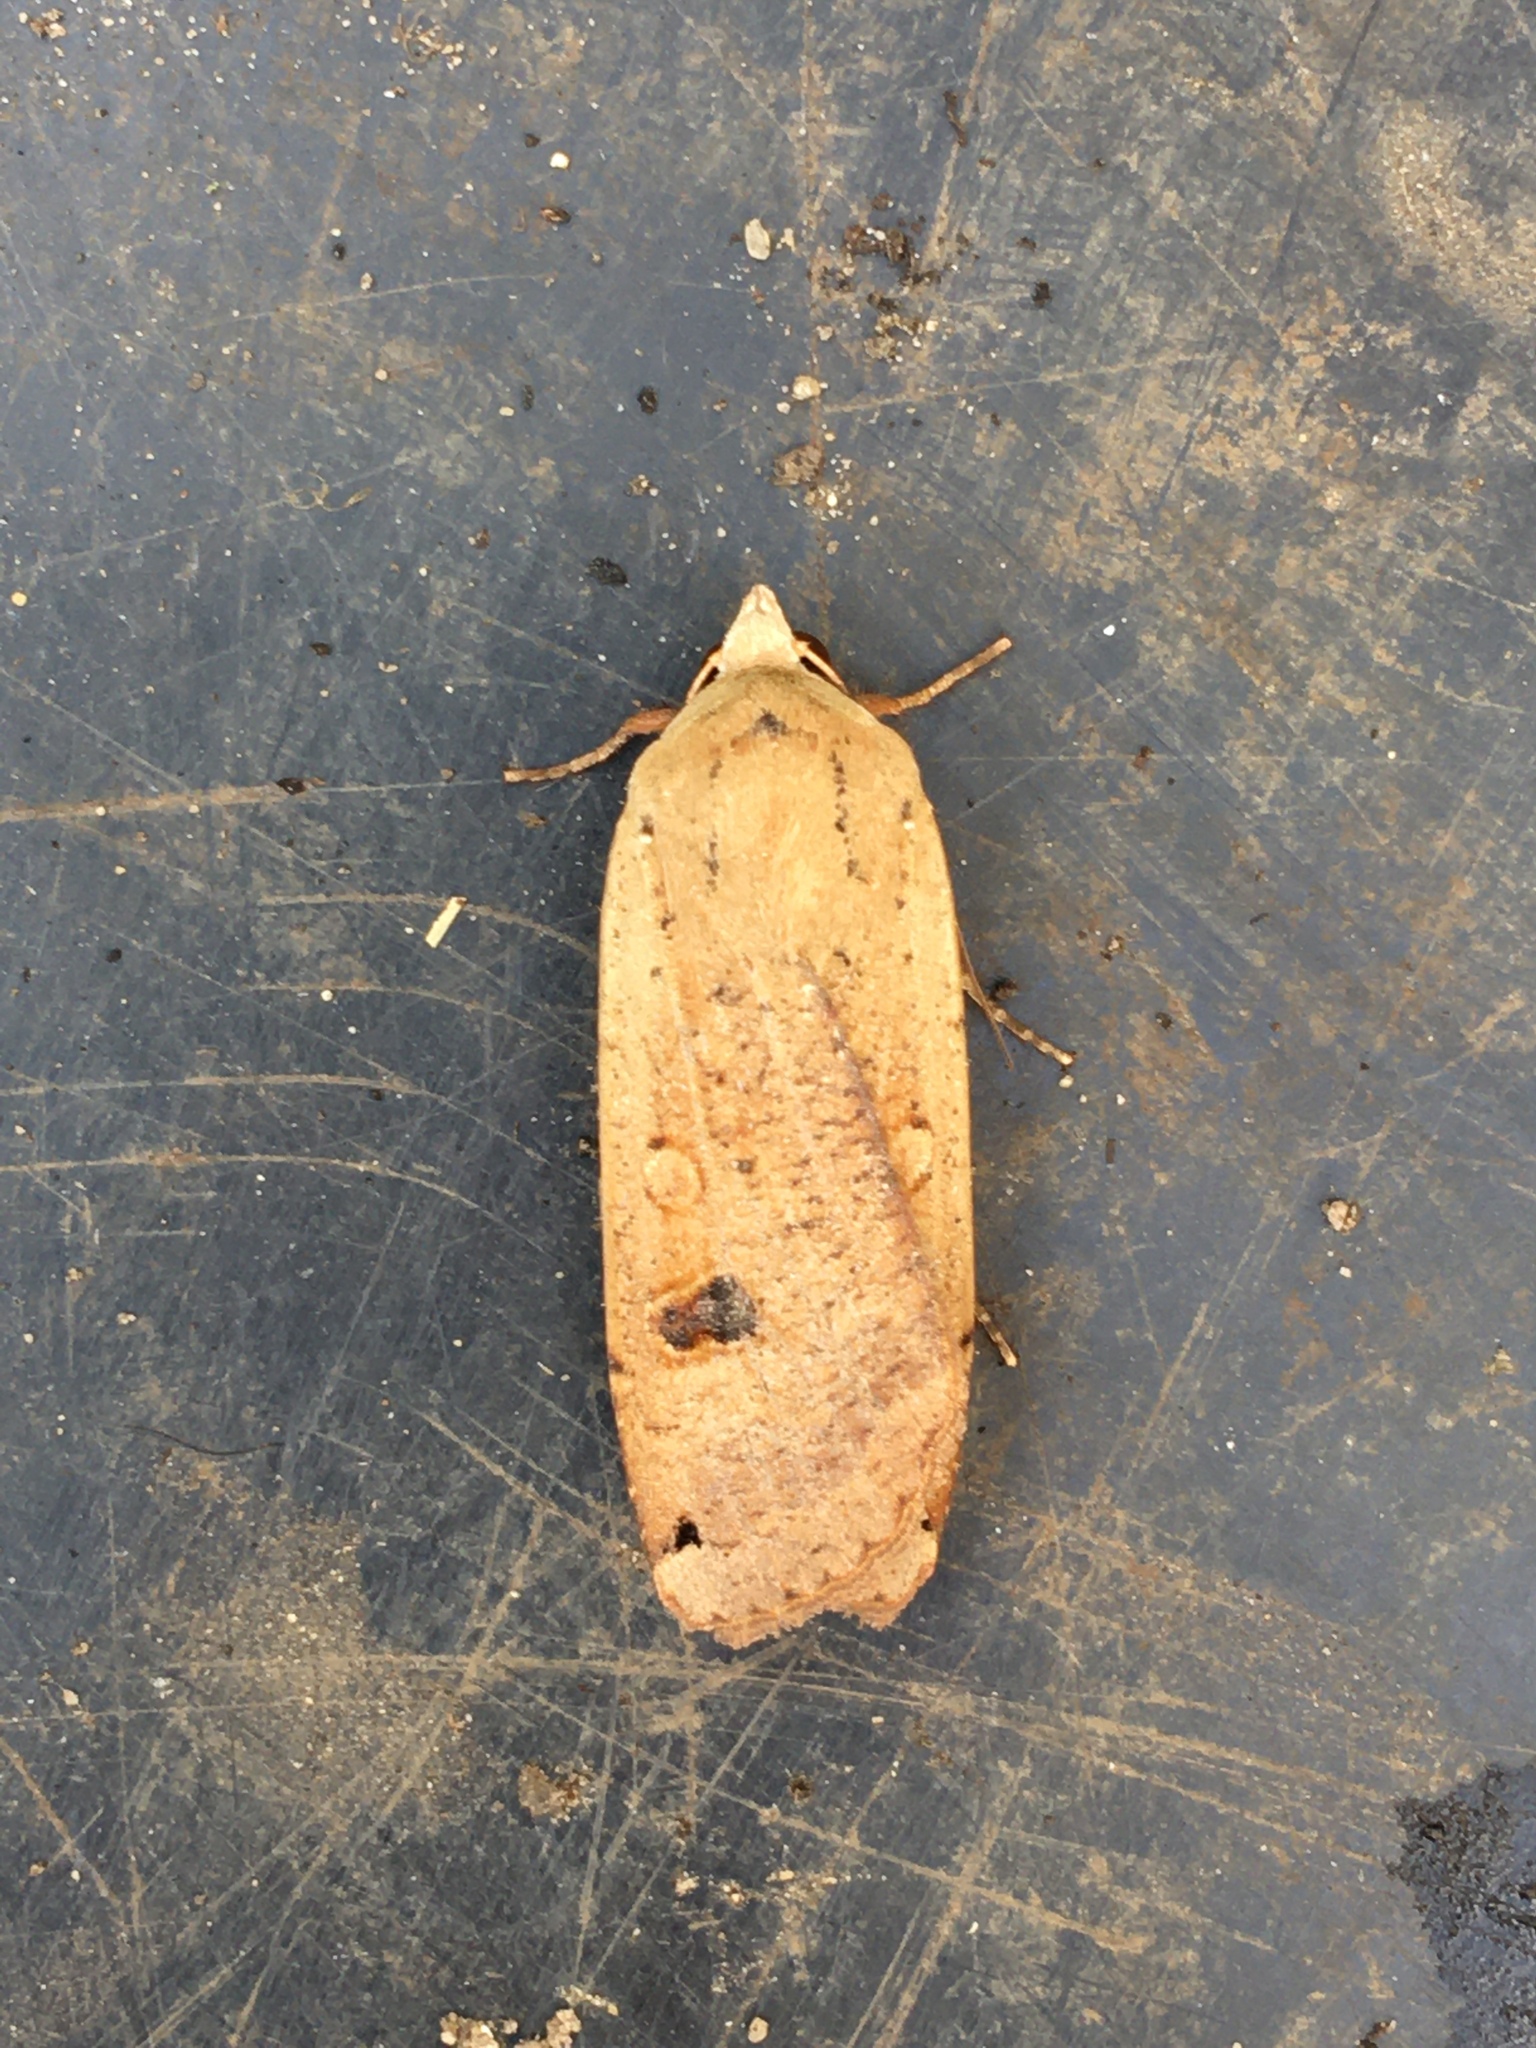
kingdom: Animalia
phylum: Arthropoda
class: Insecta
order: Lepidoptera
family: Noctuidae
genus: Noctua
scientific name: Noctua pronuba
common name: Large yellow underwing
